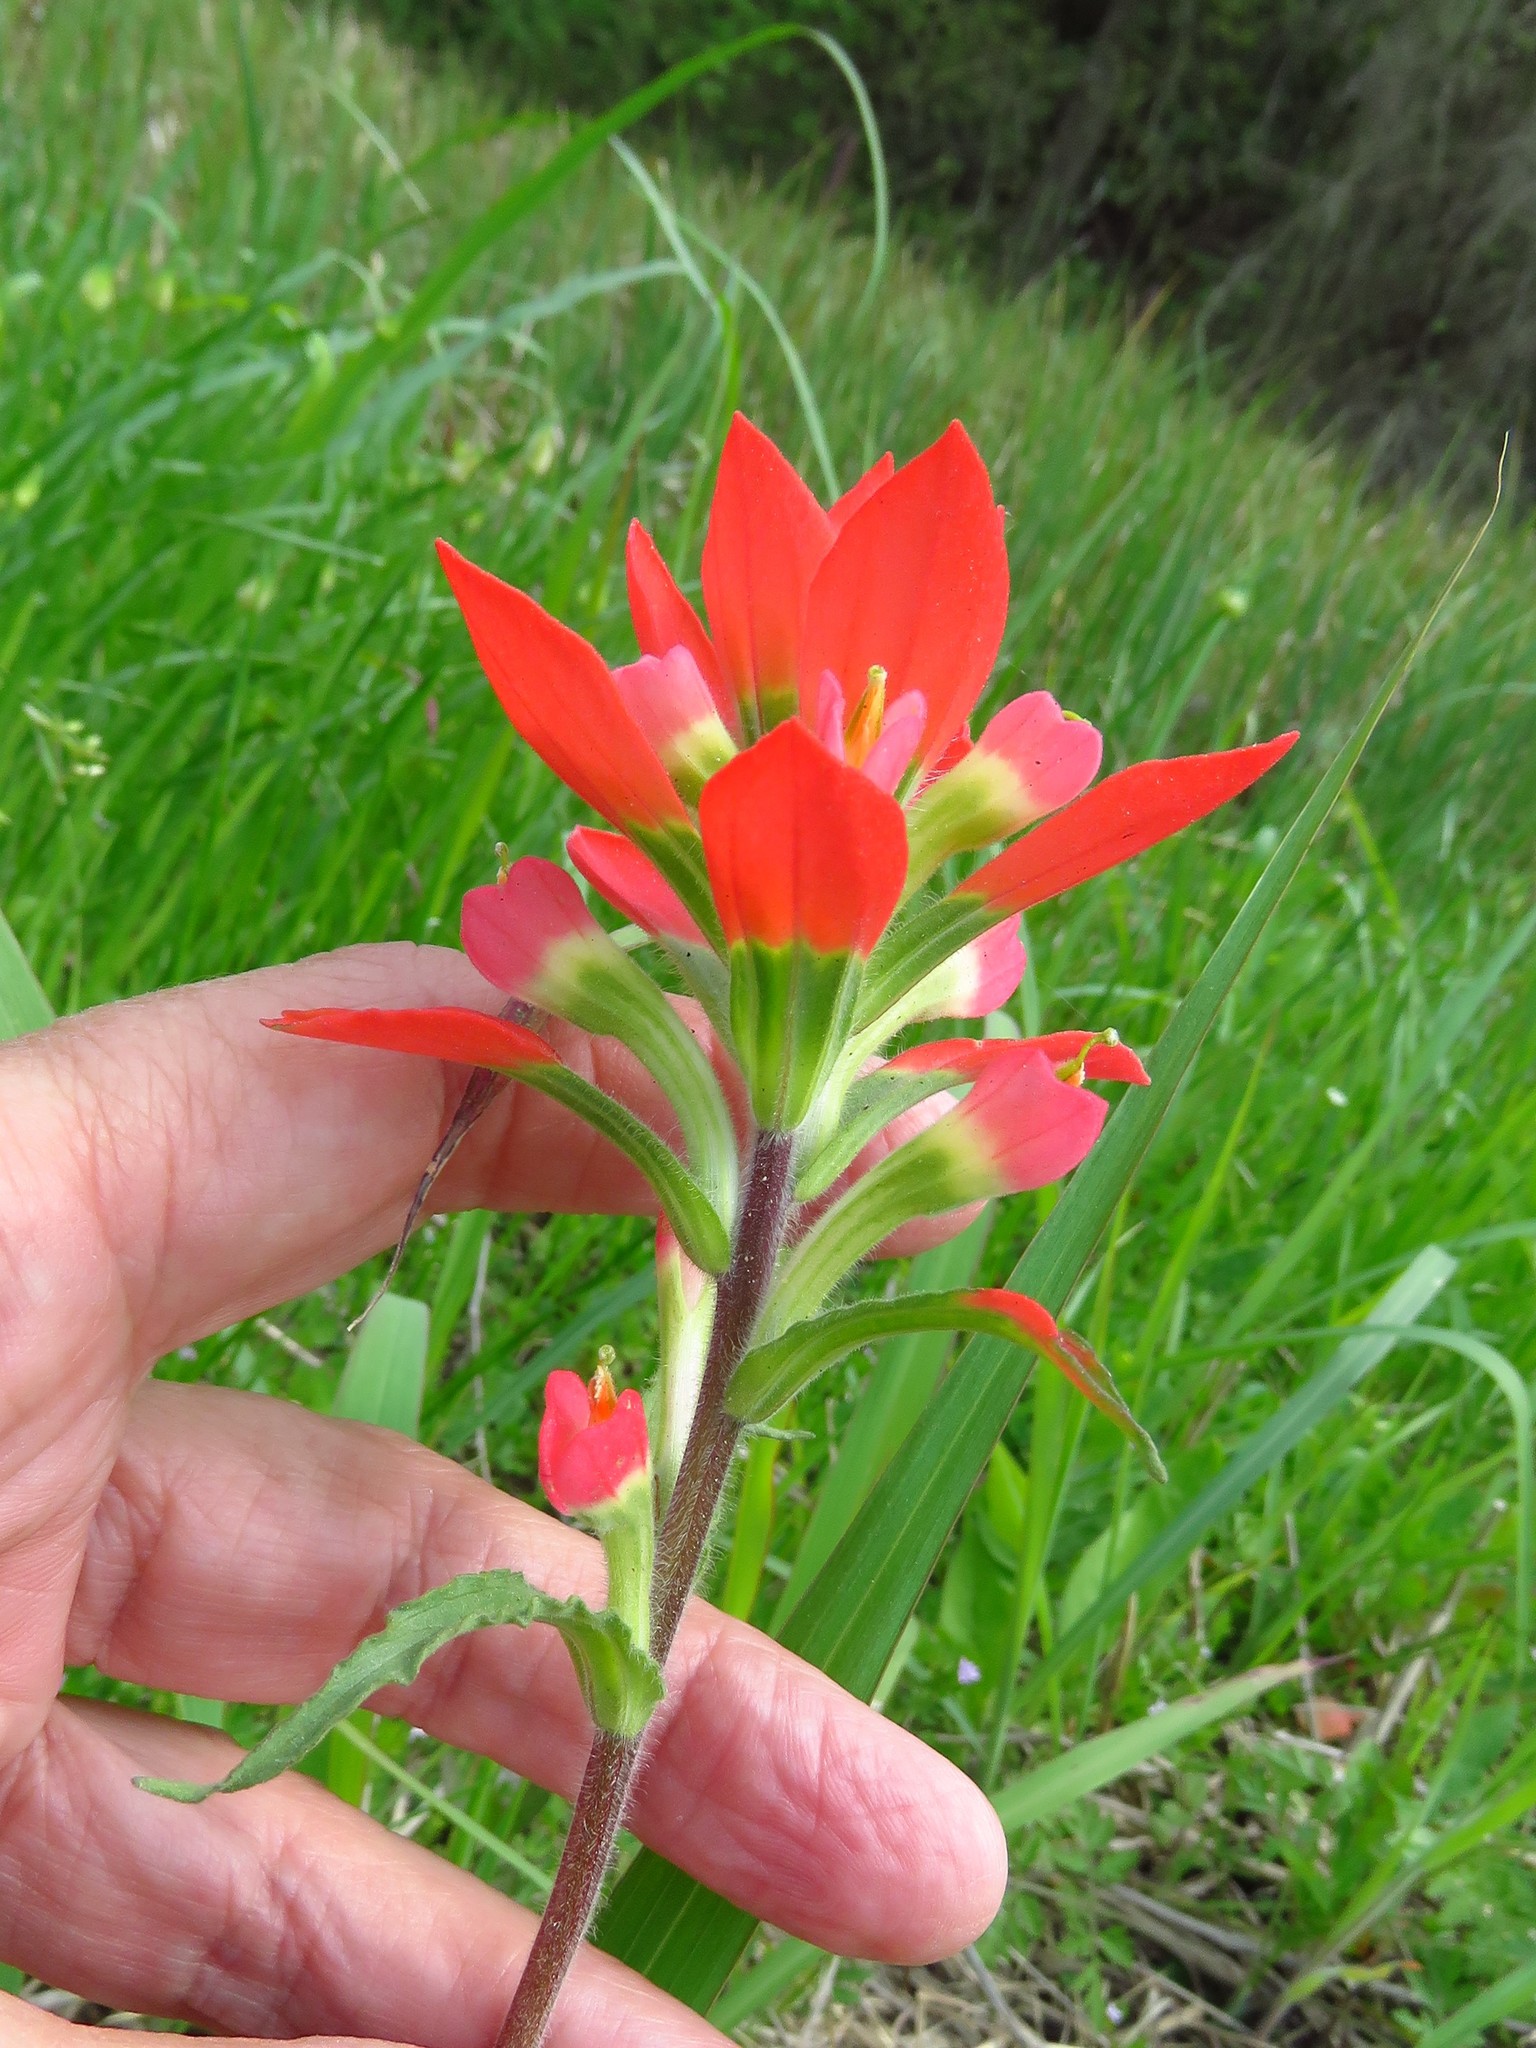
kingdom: Plantae
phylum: Tracheophyta
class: Magnoliopsida
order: Lamiales
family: Orobanchaceae
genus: Castilleja
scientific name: Castilleja indivisa
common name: Texas paintbrush
